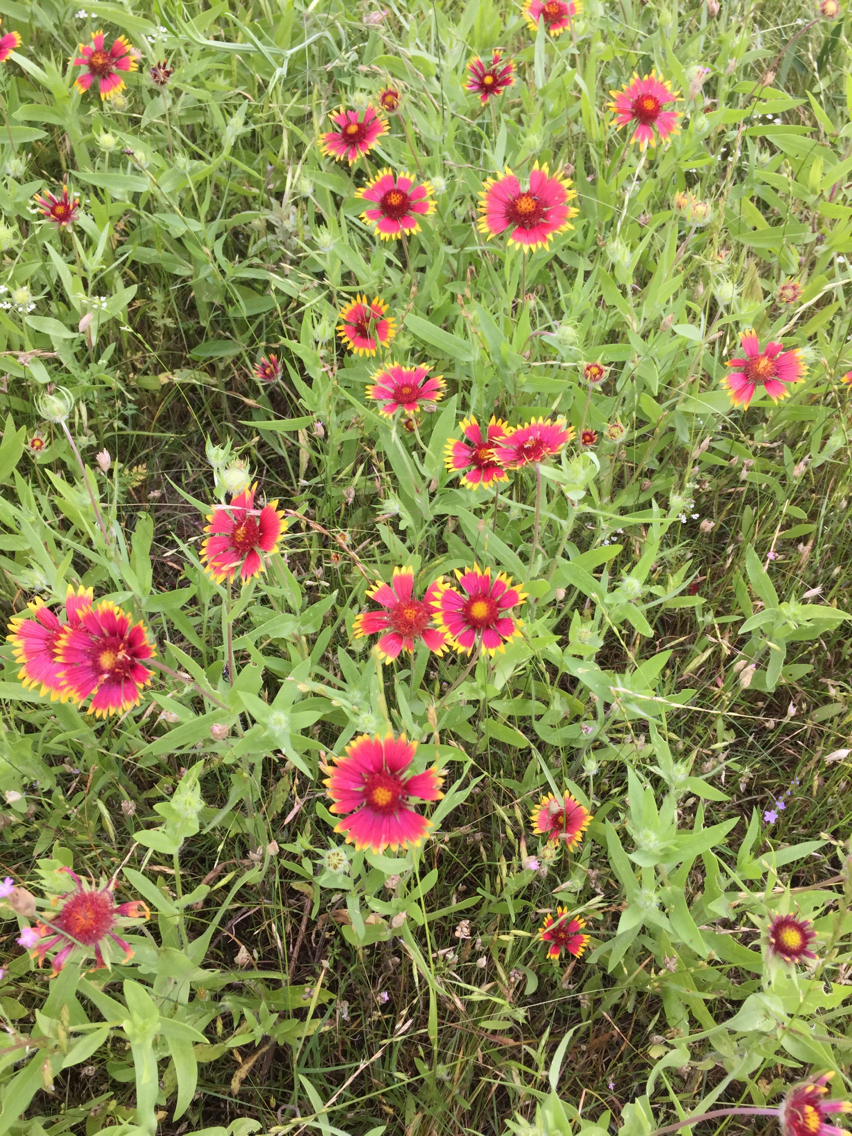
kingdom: Plantae
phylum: Tracheophyta
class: Magnoliopsida
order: Asterales
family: Asteraceae
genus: Gaillardia
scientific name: Gaillardia pulchella
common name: Firewheel
